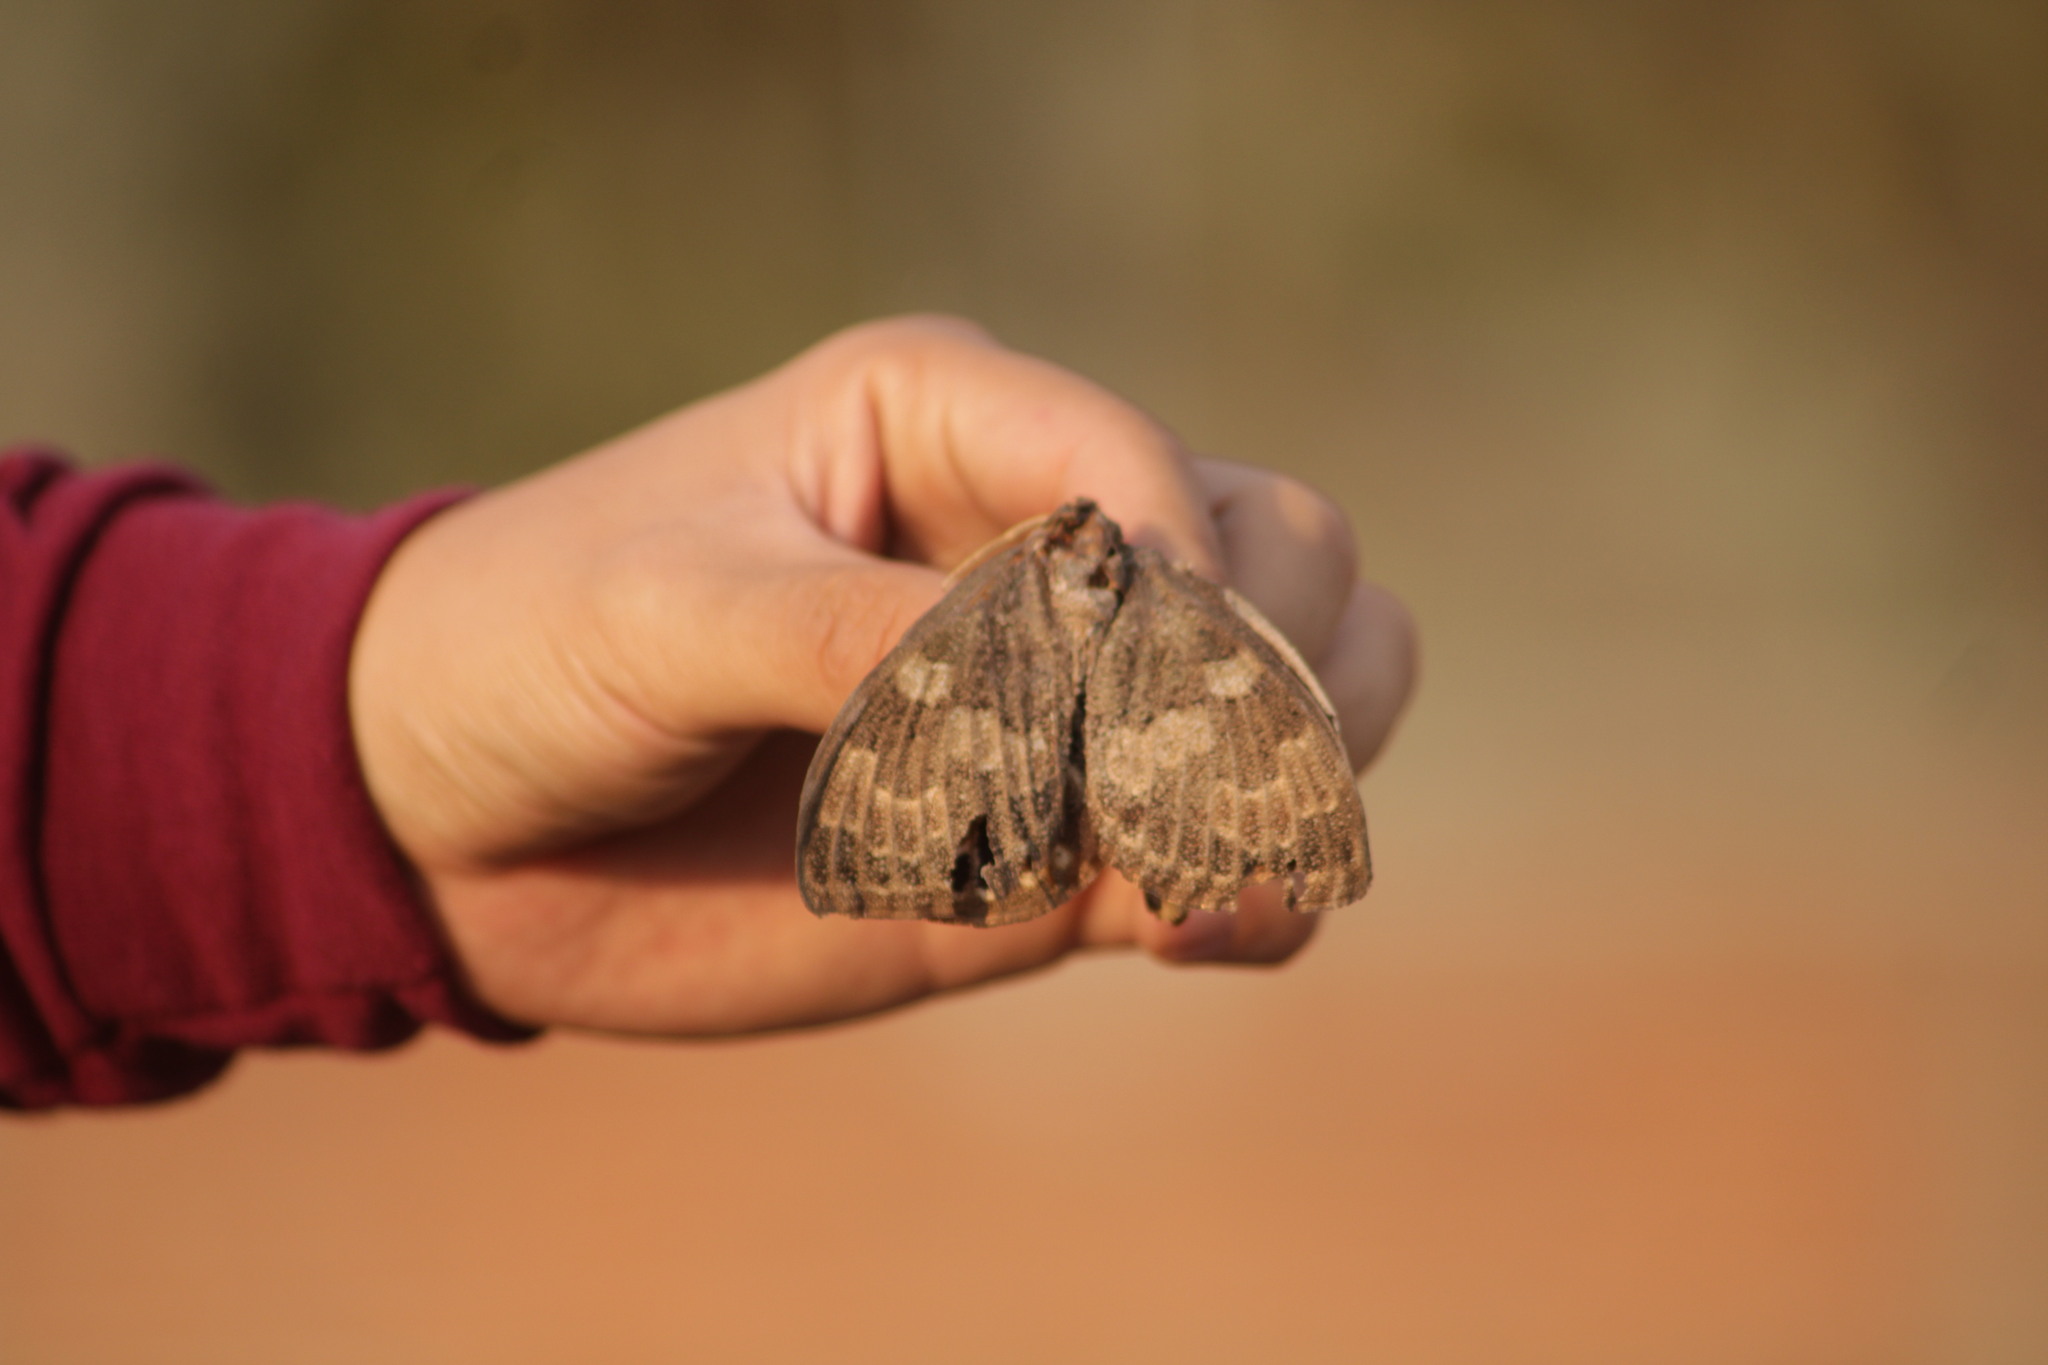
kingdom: Animalia
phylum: Arthropoda
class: Insecta
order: Lepidoptera
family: Castniidae
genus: Escalantiana
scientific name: Escalantiana
